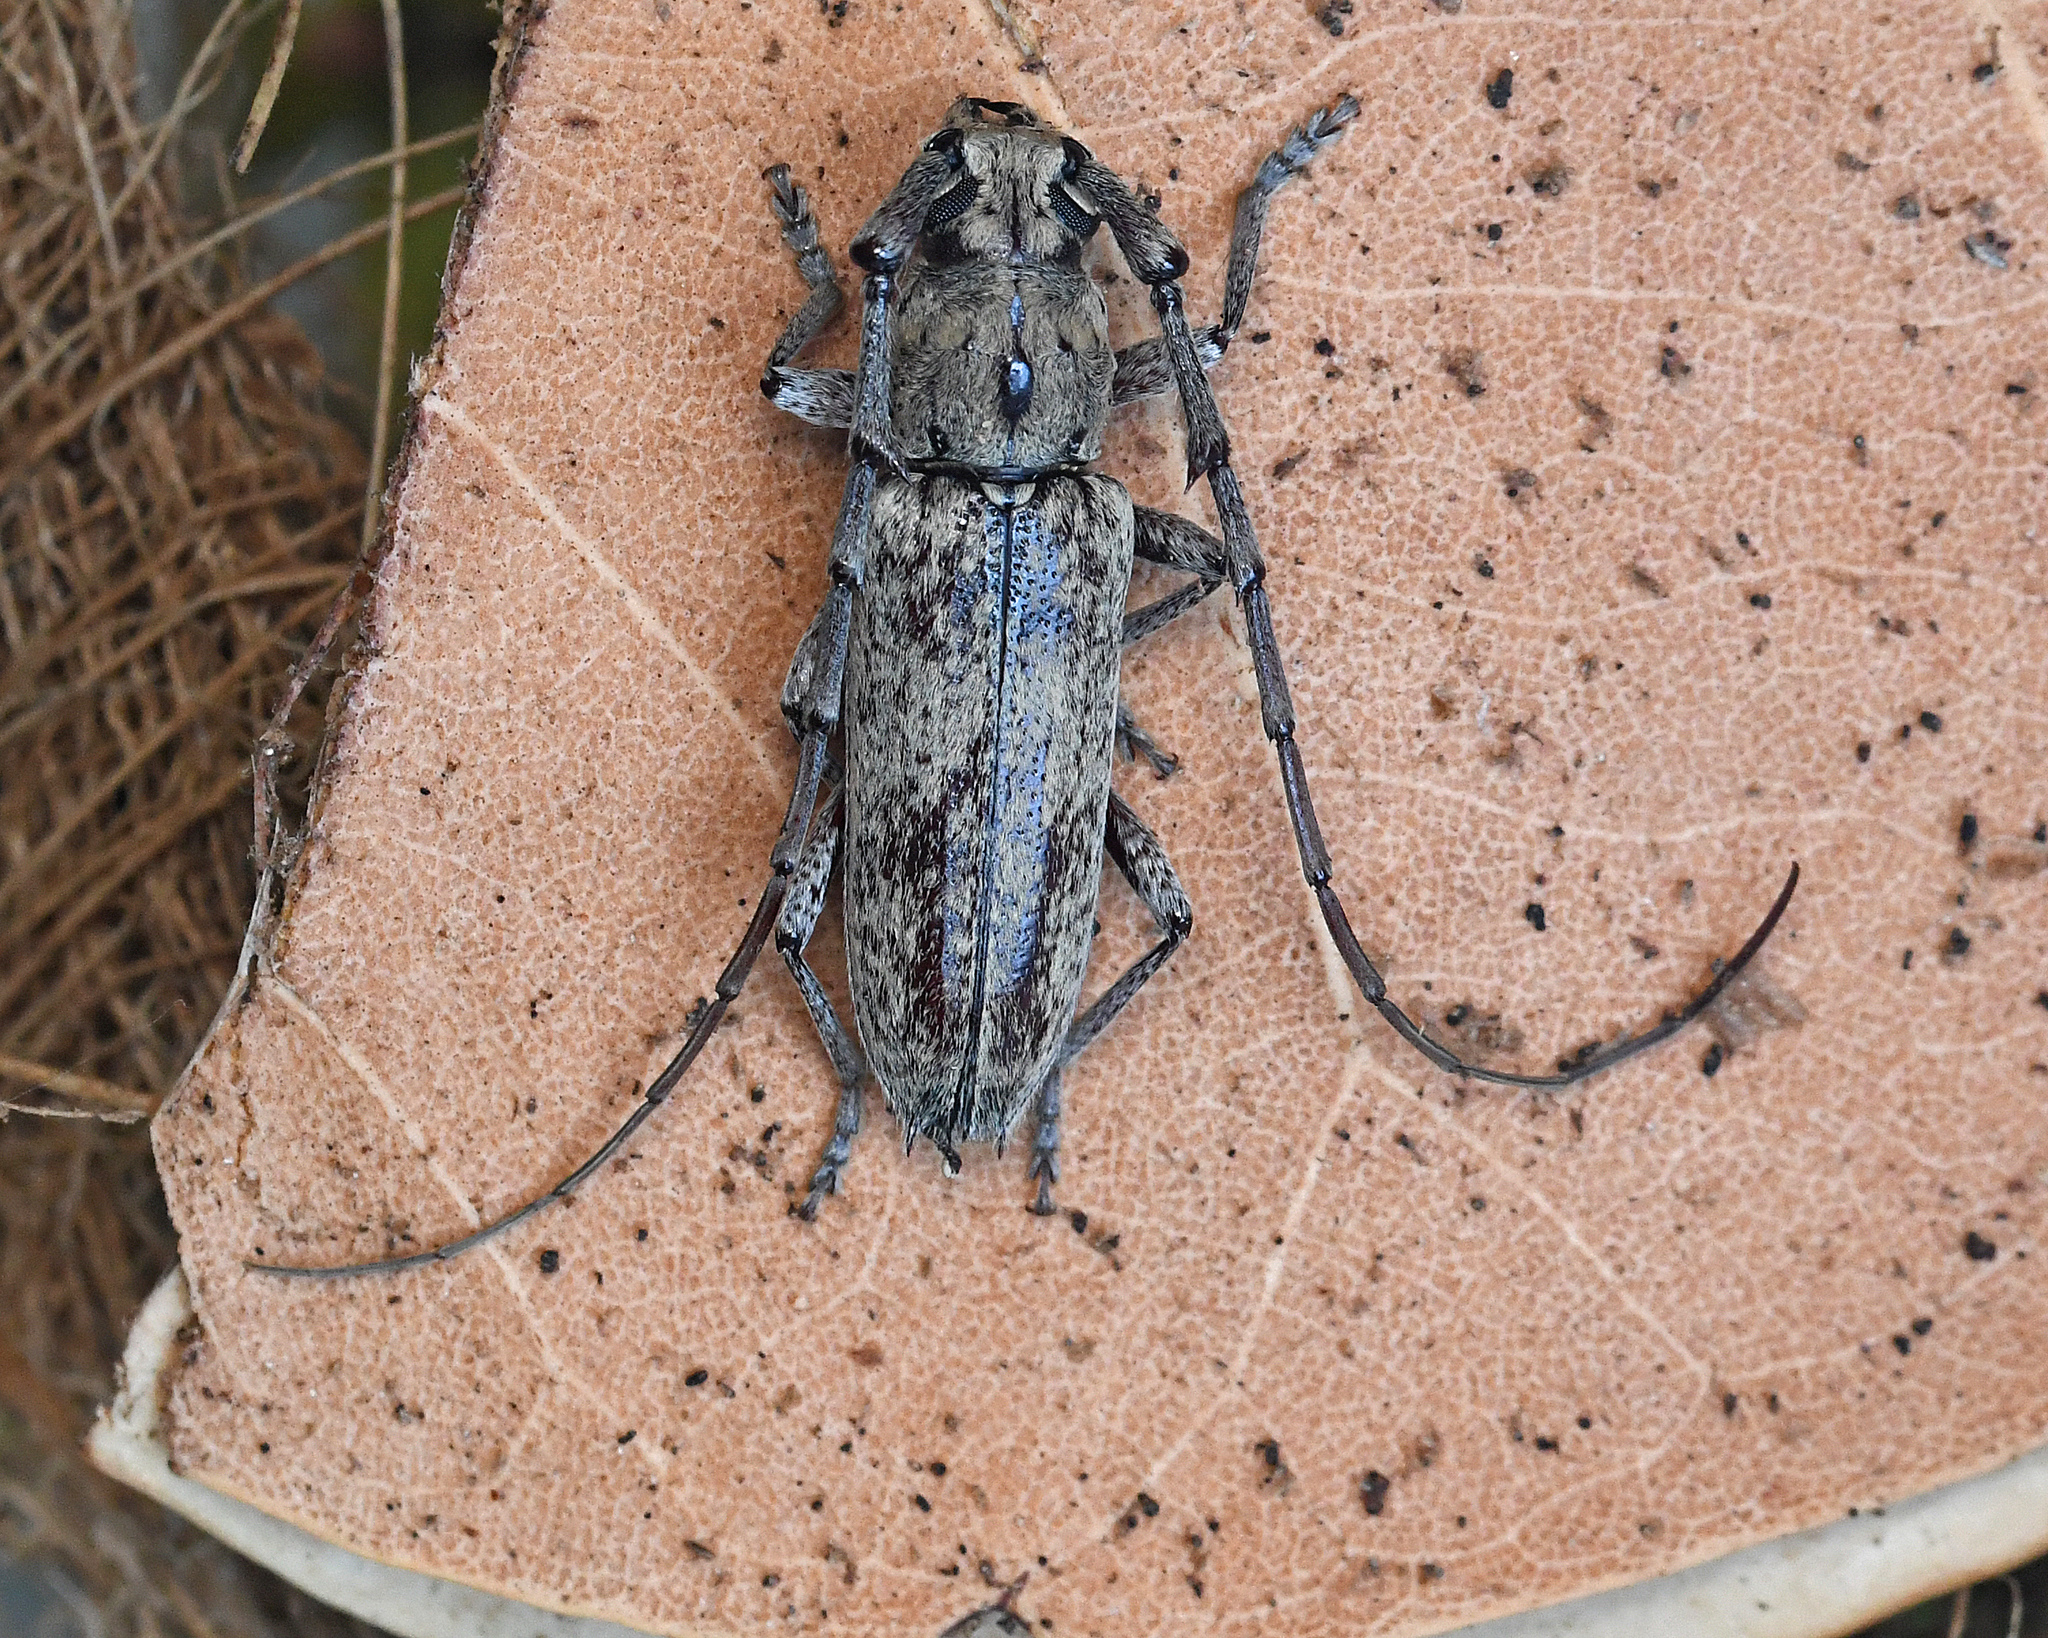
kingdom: Animalia
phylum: Arthropoda
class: Insecta
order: Coleoptera
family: Cerambycidae
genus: Elaphidion
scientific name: Elaphidion tomentosum
